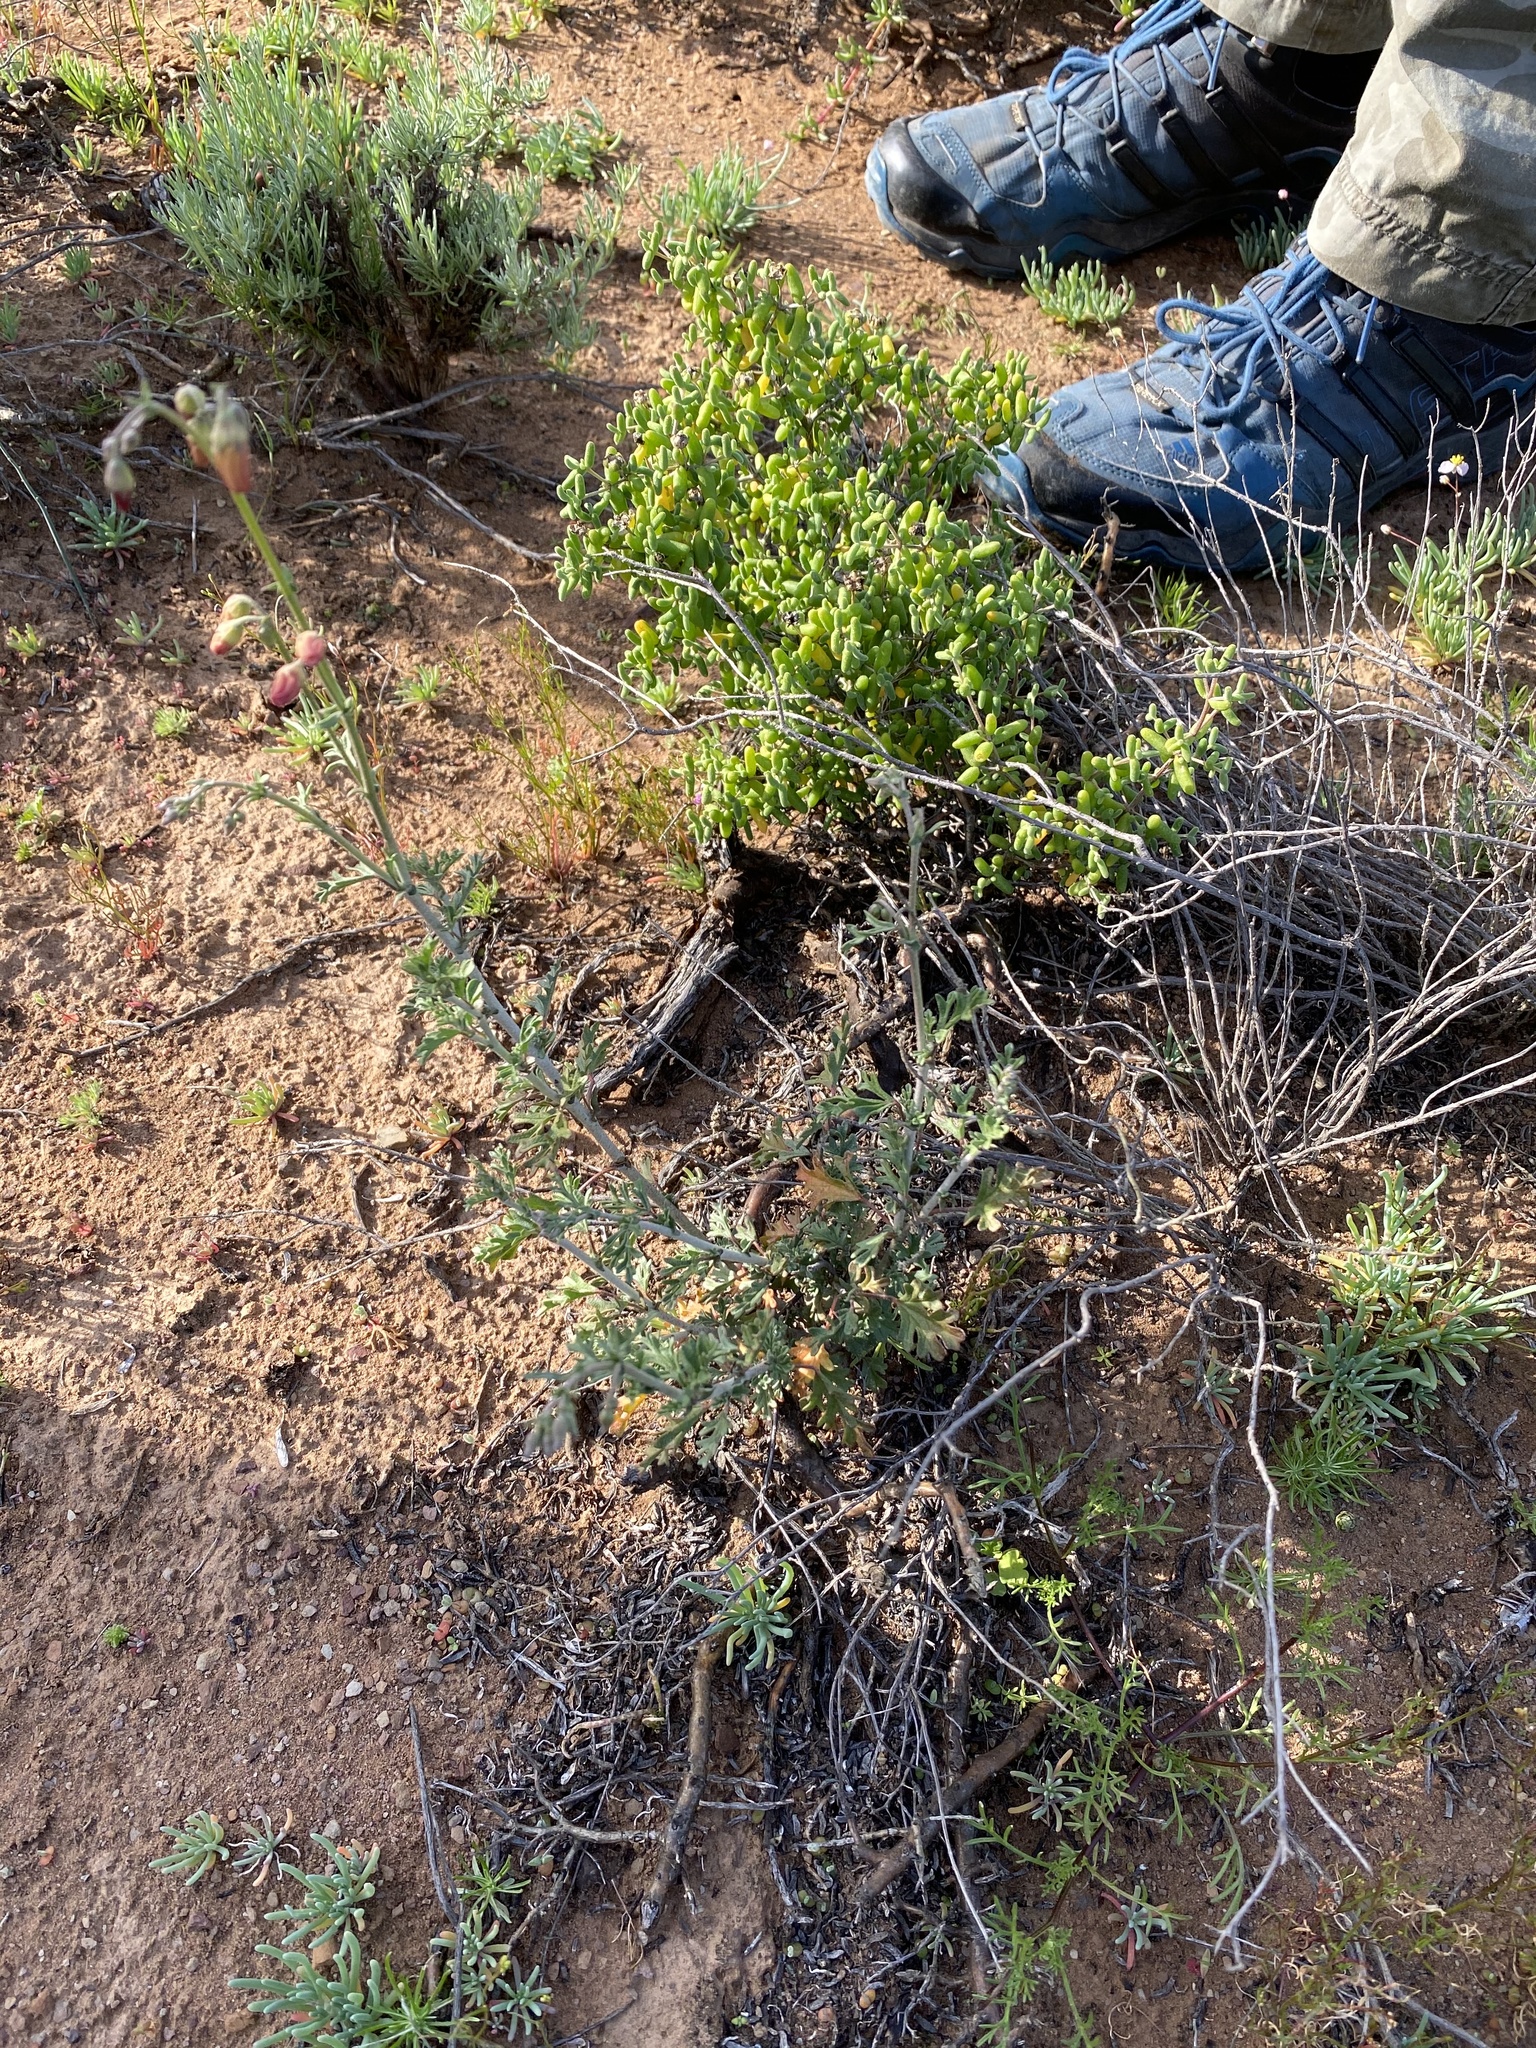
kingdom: Plantae
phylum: Tracheophyta
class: Magnoliopsida
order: Malvales
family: Malvaceae
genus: Hermannia
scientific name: Hermannia pulverata
